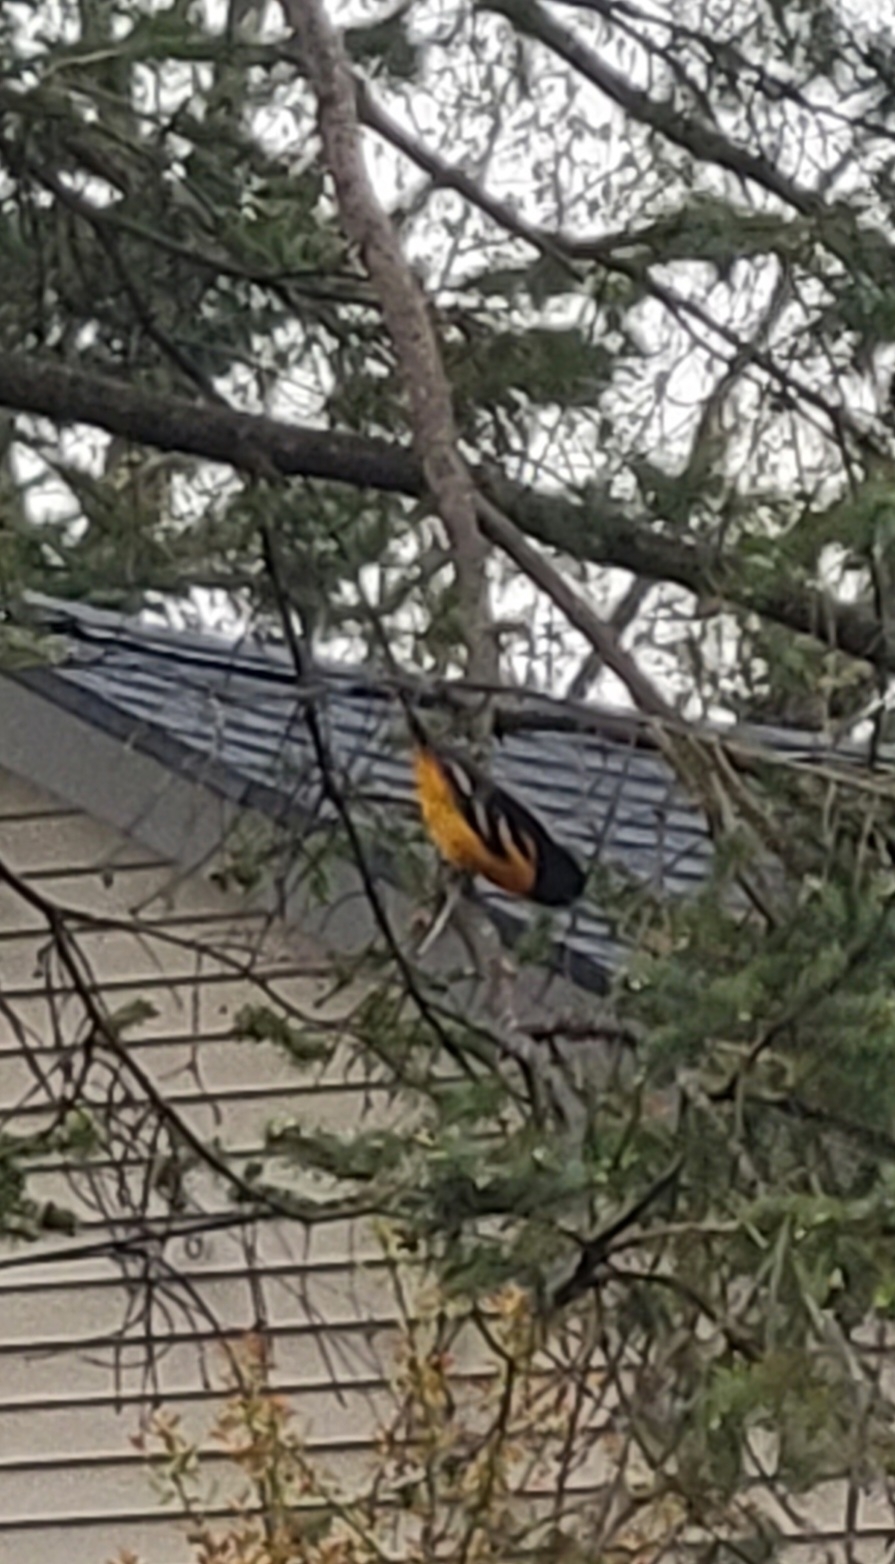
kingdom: Animalia
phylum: Chordata
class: Aves
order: Passeriformes
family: Icteridae
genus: Icterus
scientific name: Icterus galbula
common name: Baltimore oriole
